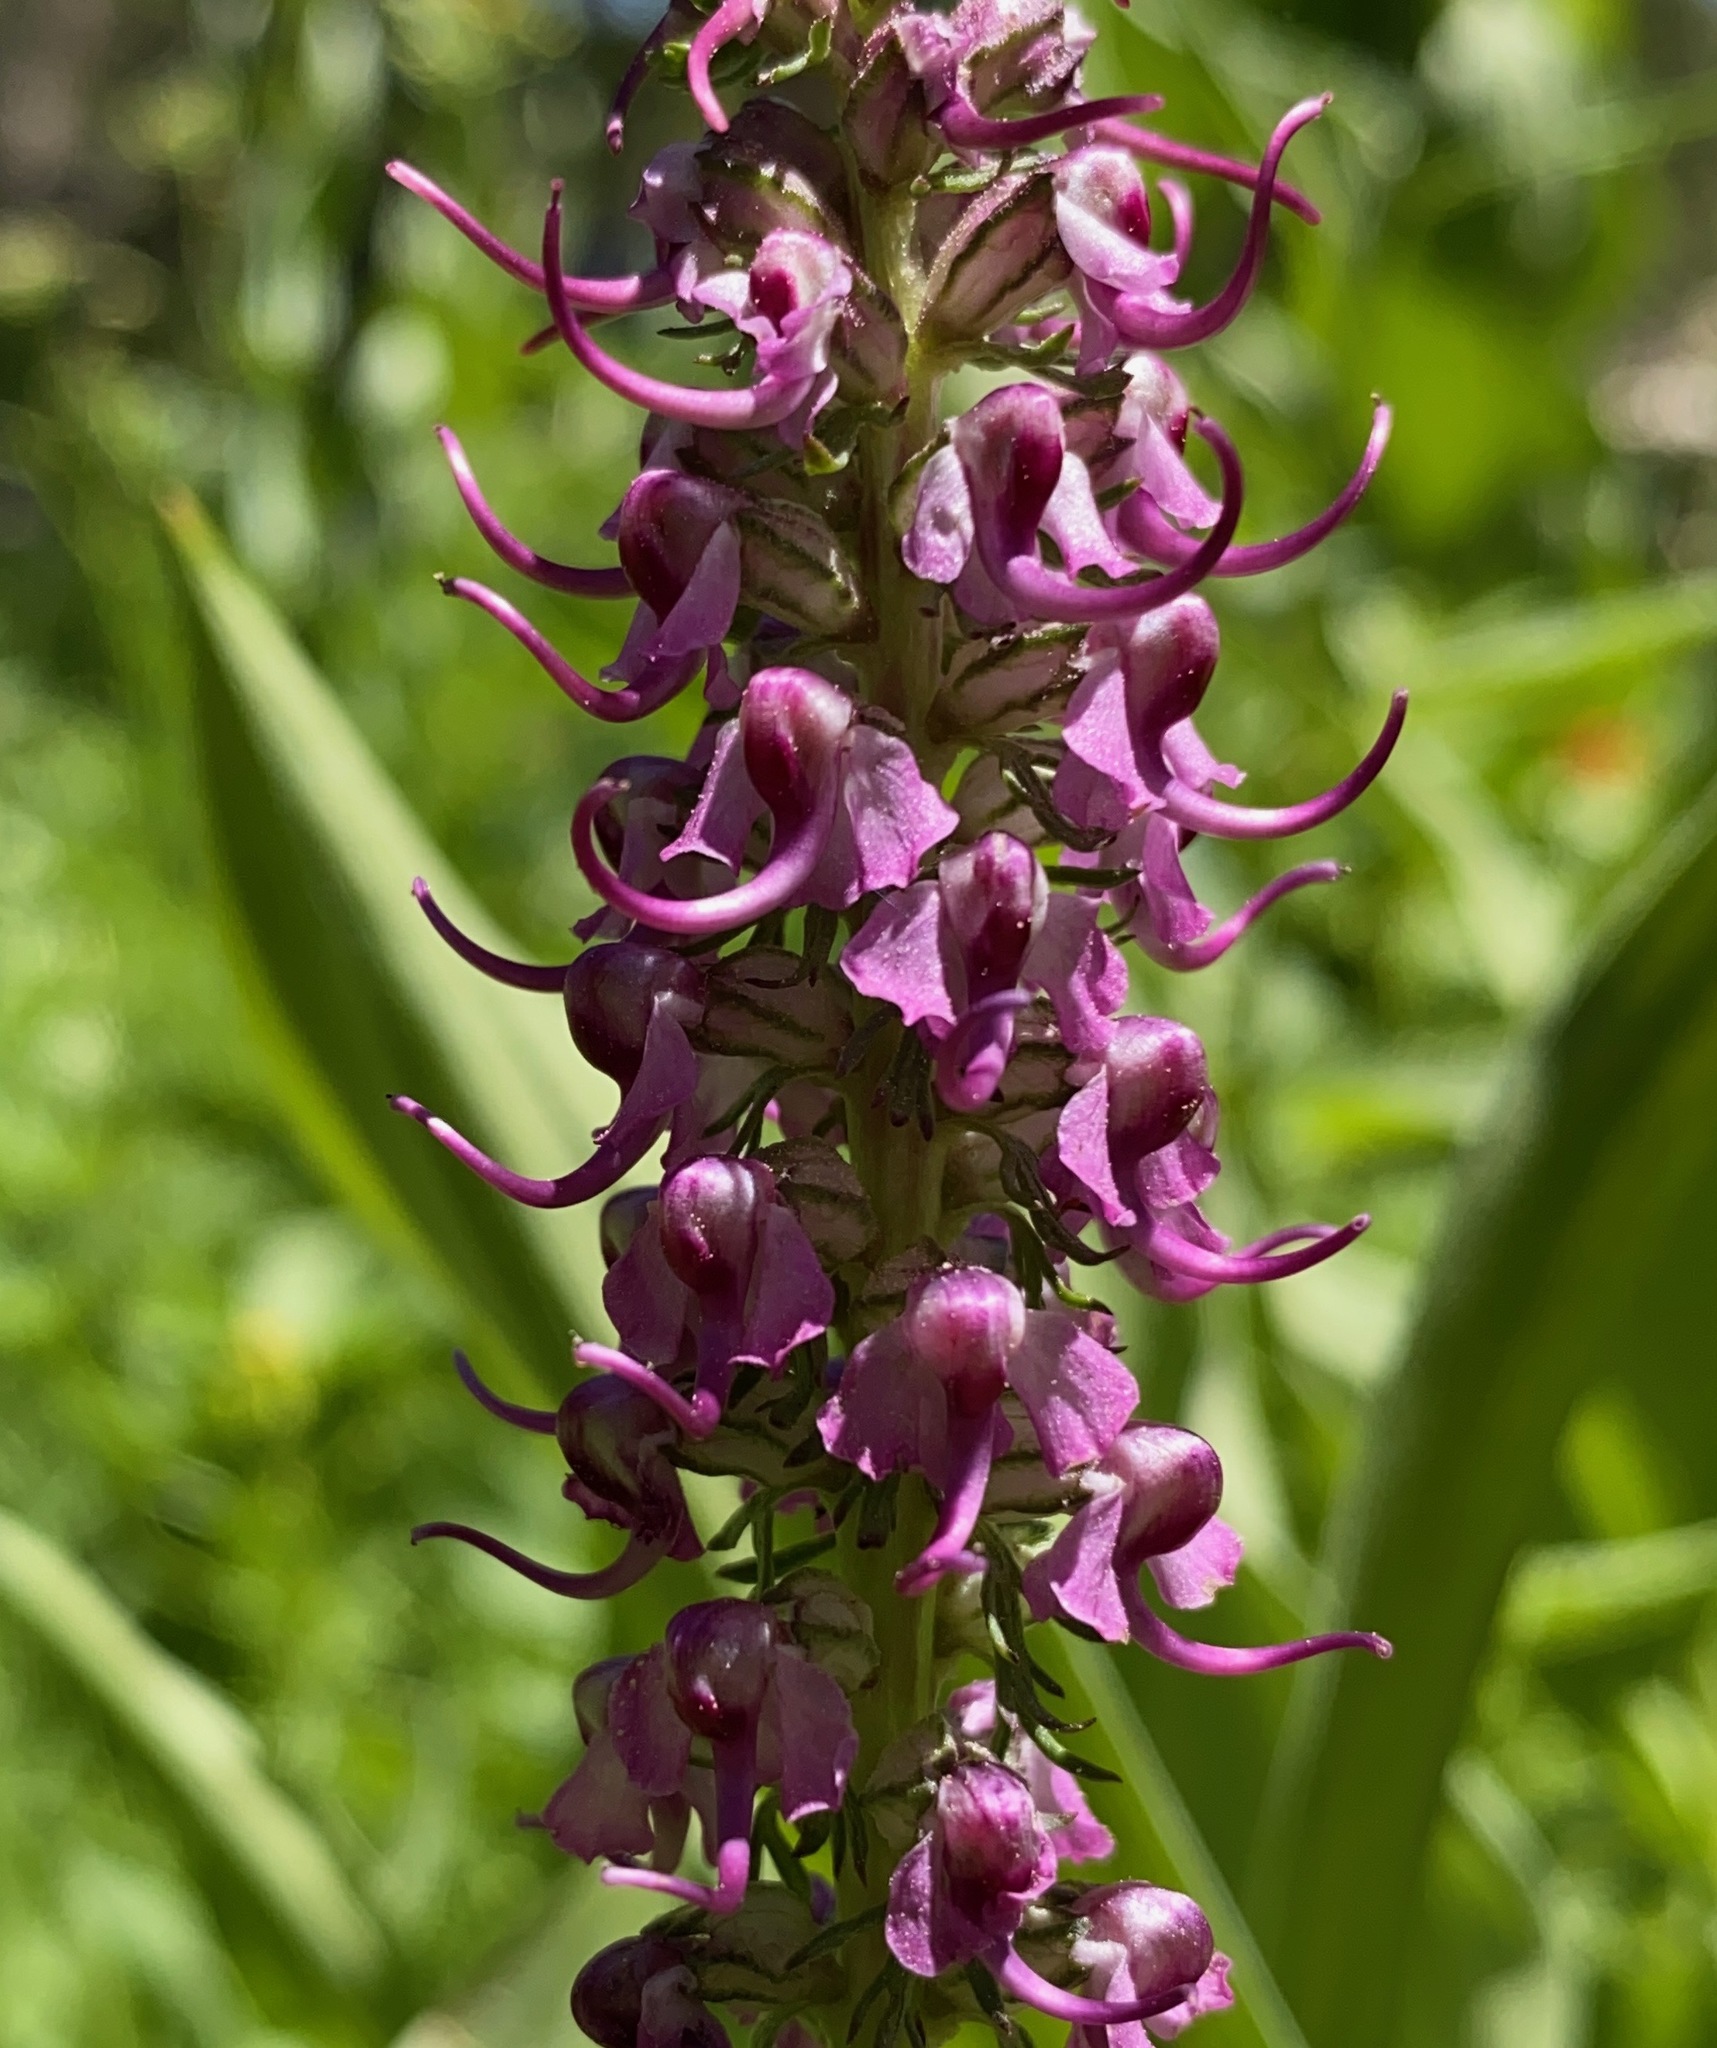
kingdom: Plantae
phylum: Tracheophyta
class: Magnoliopsida
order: Lamiales
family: Orobanchaceae
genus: Pedicularis
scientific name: Pedicularis groenlandica
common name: Elephant's-head
